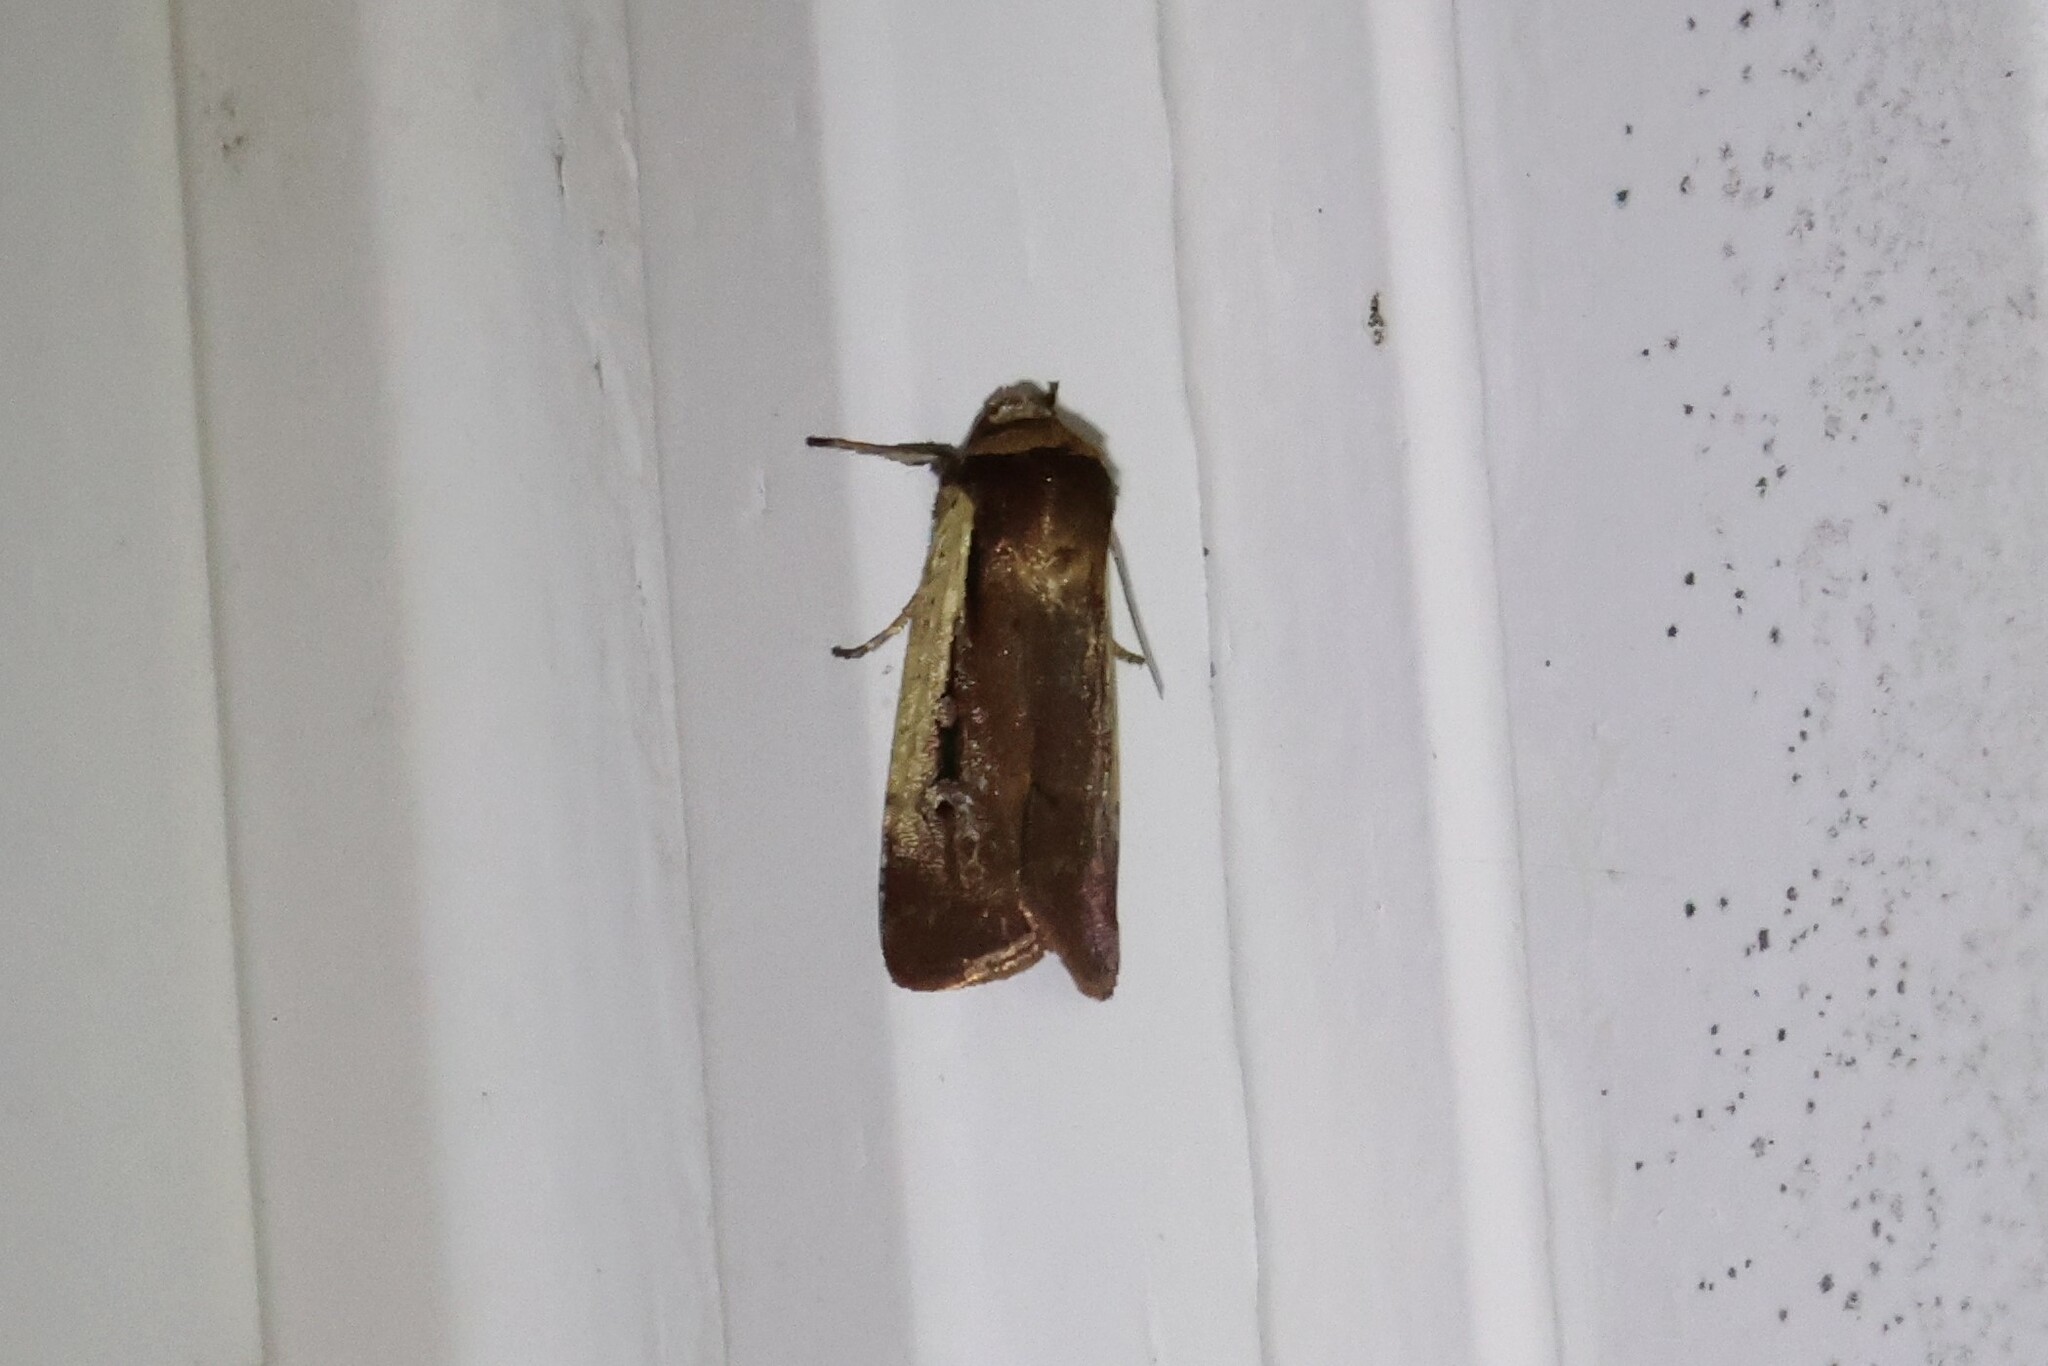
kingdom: Animalia
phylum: Arthropoda
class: Insecta
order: Lepidoptera
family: Noctuidae
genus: Ochropleura
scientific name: Ochropleura implecta
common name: Flame-shouldered dart
